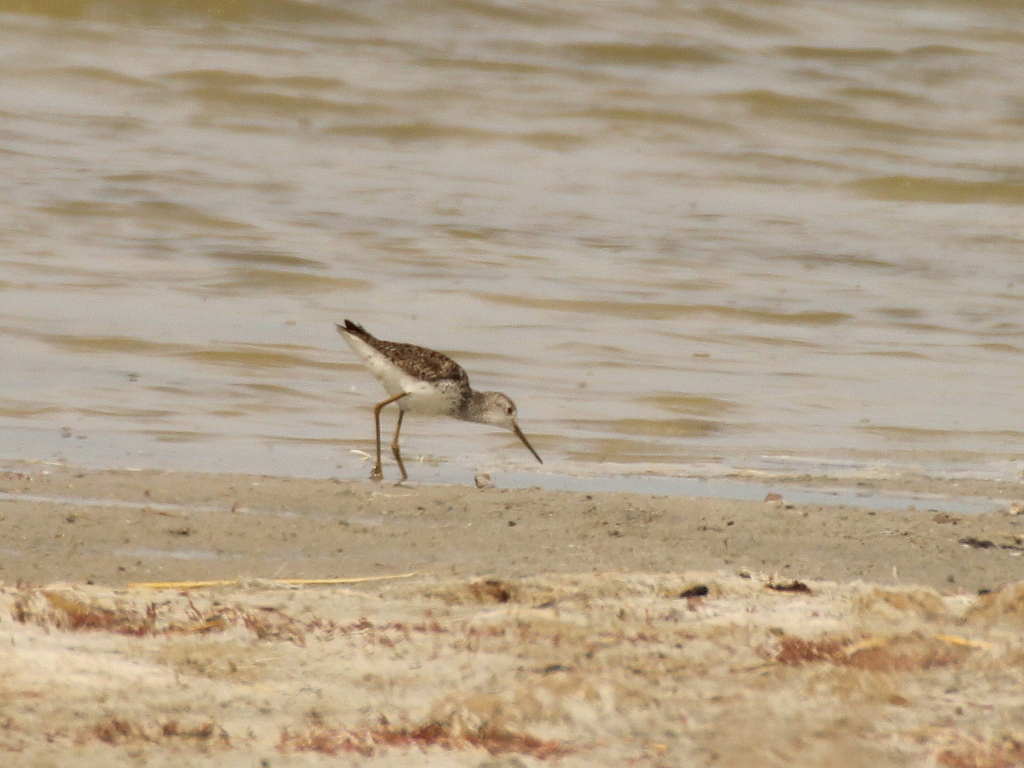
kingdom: Animalia
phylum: Chordata
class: Aves
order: Charadriiformes
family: Scolopacidae
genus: Tringa
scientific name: Tringa stagnatilis
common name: Marsh sandpiper
